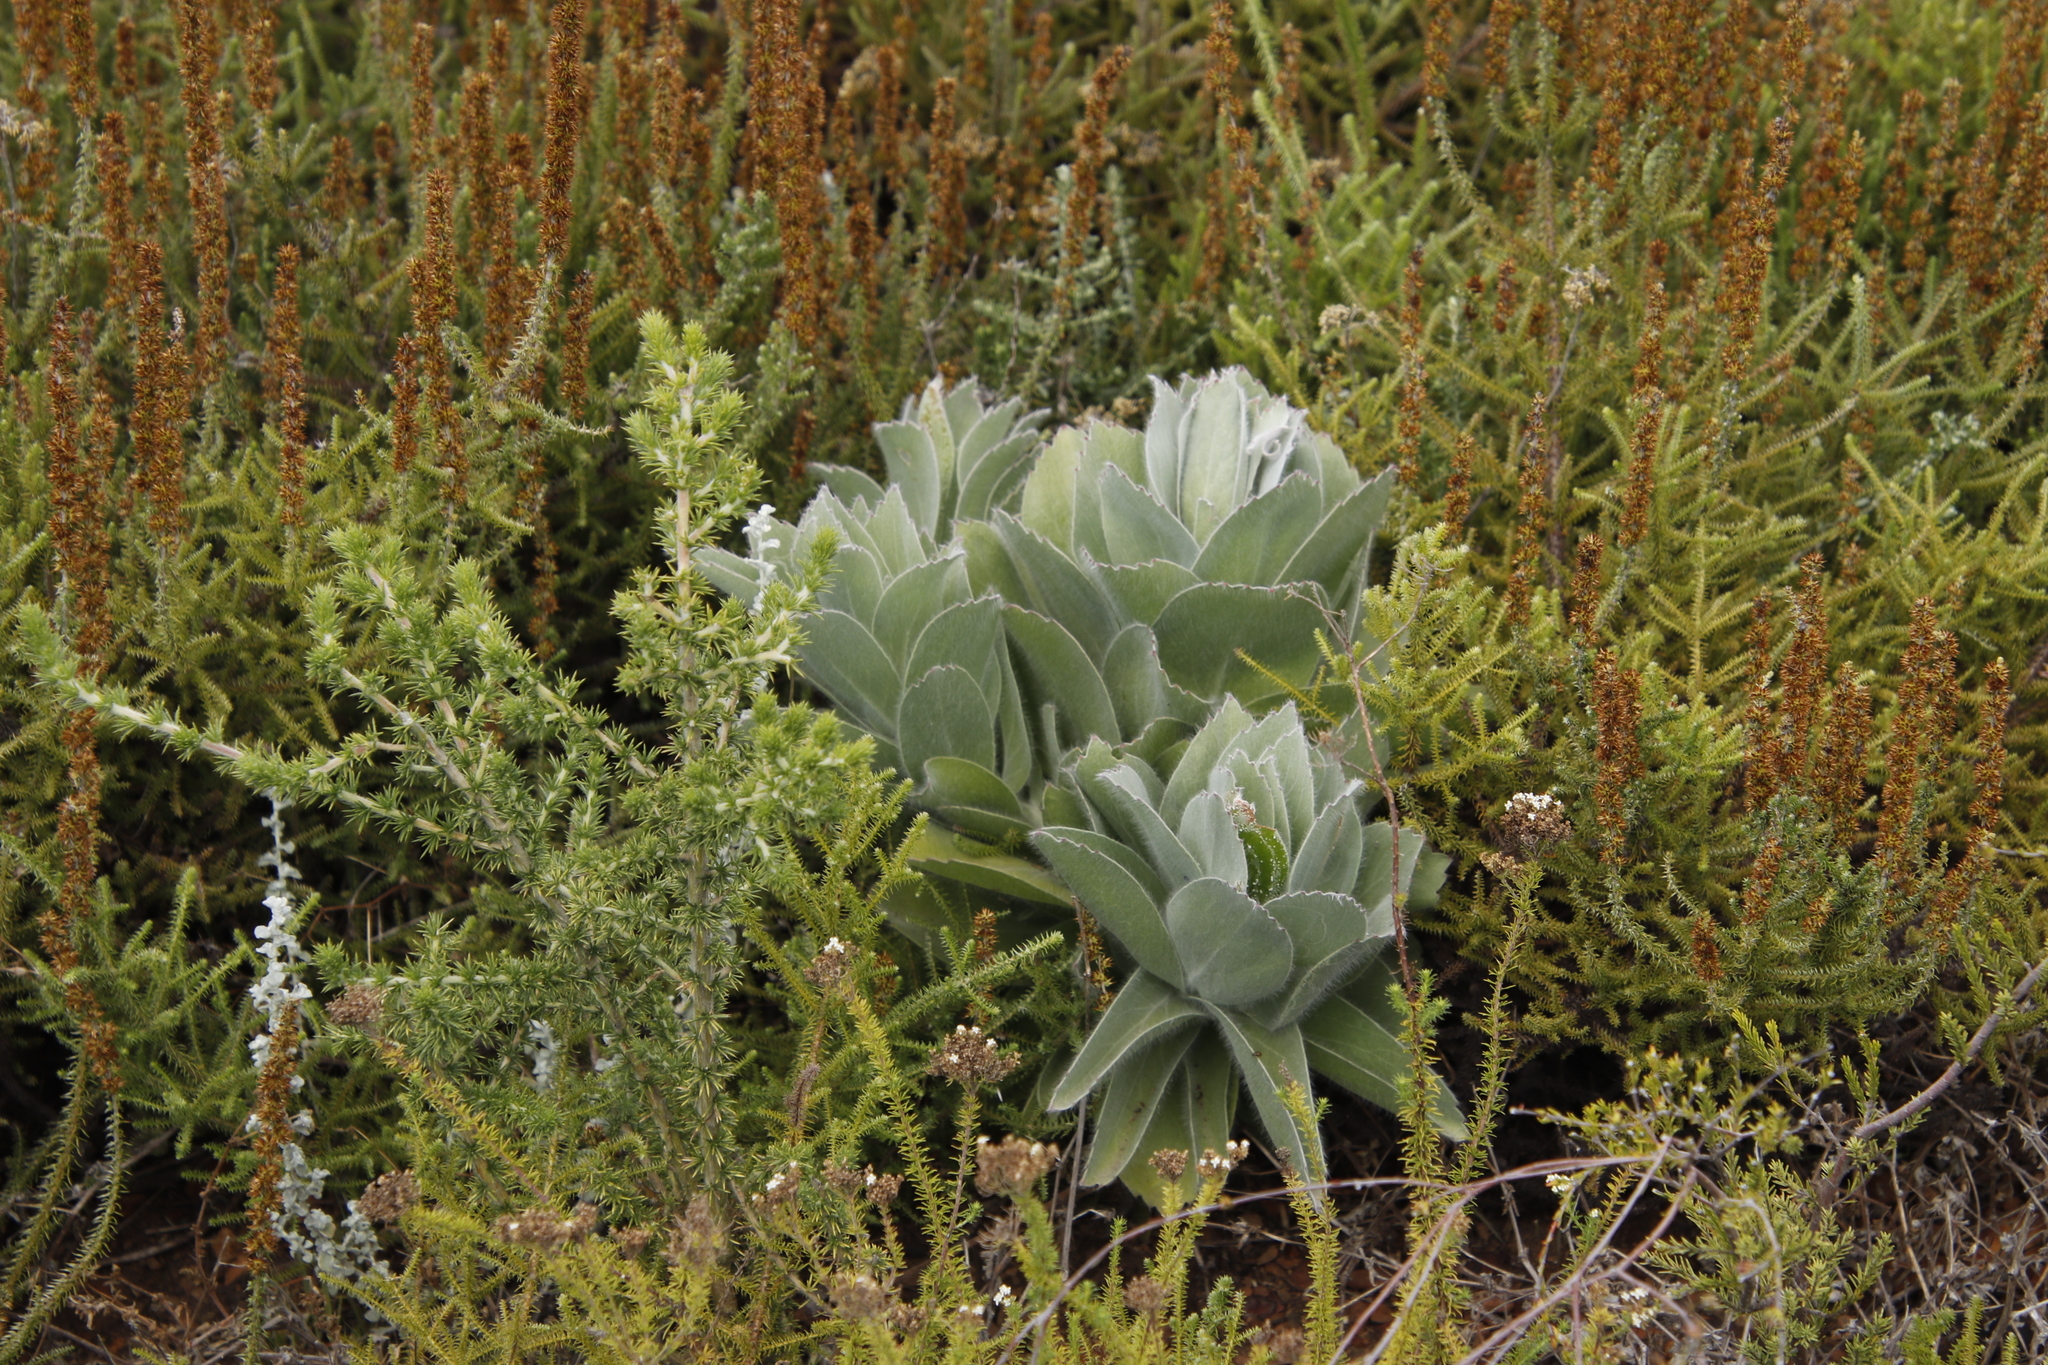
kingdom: Plantae
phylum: Tracheophyta
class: Magnoliopsida
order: Proteales
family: Proteaceae
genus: Leucospermum
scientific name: Leucospermum conocarpodendron
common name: Tree pincushion
